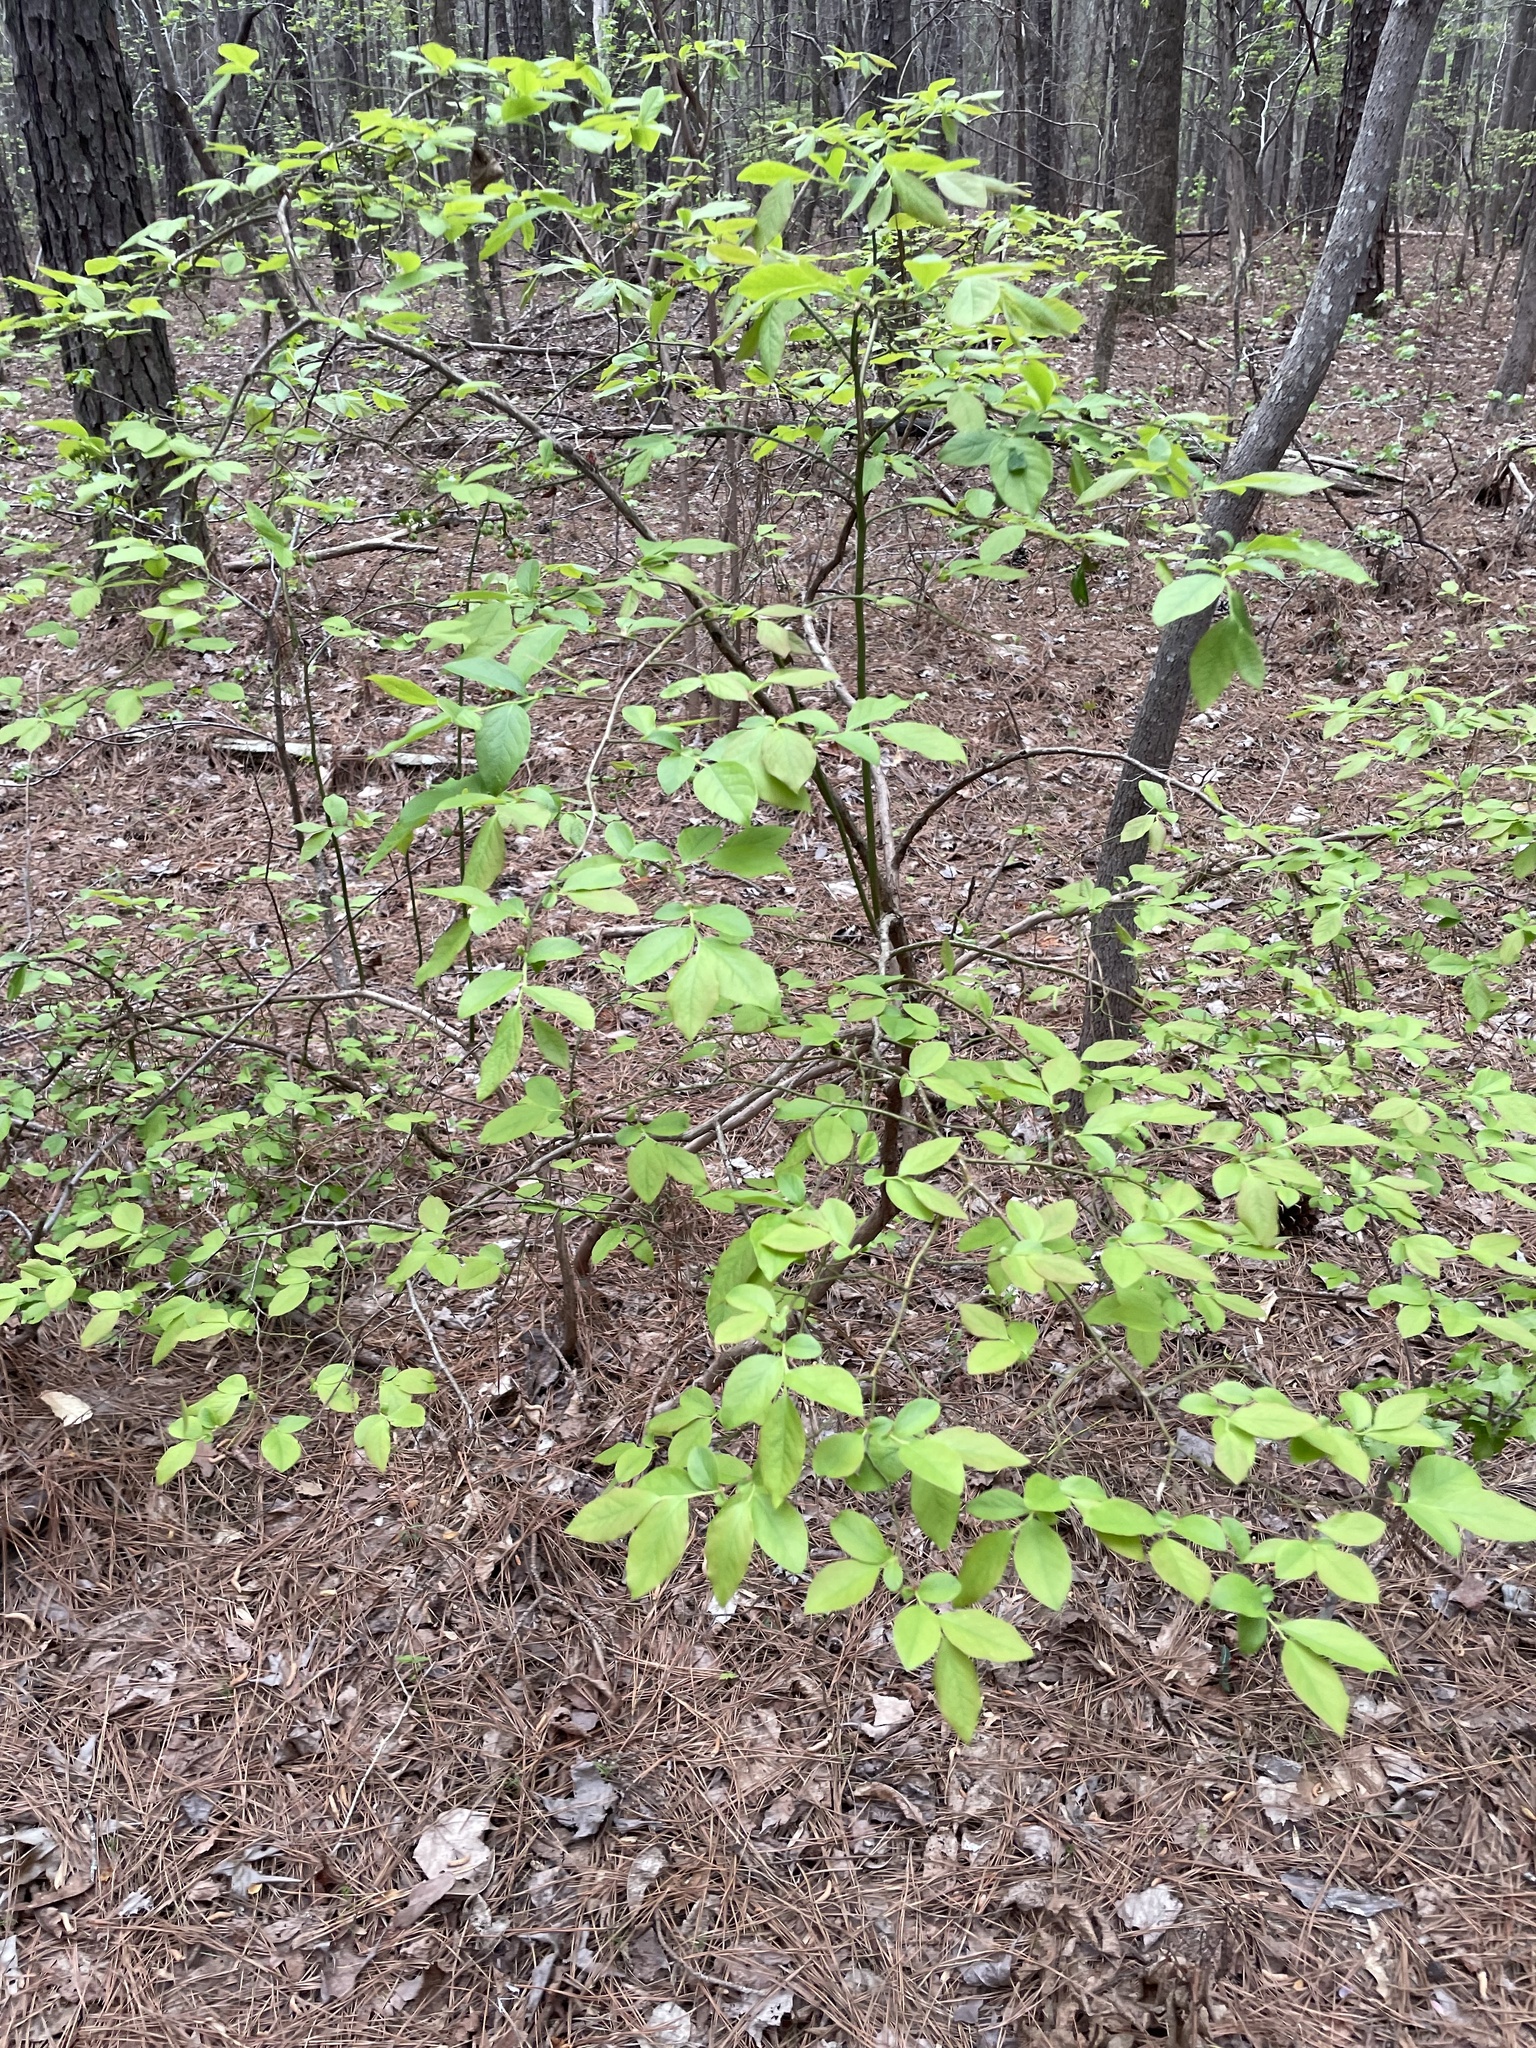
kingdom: Plantae
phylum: Tracheophyta
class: Magnoliopsida
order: Ericales
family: Ericaceae
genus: Vaccinium
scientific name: Vaccinium arboreum
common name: Farkleberry
